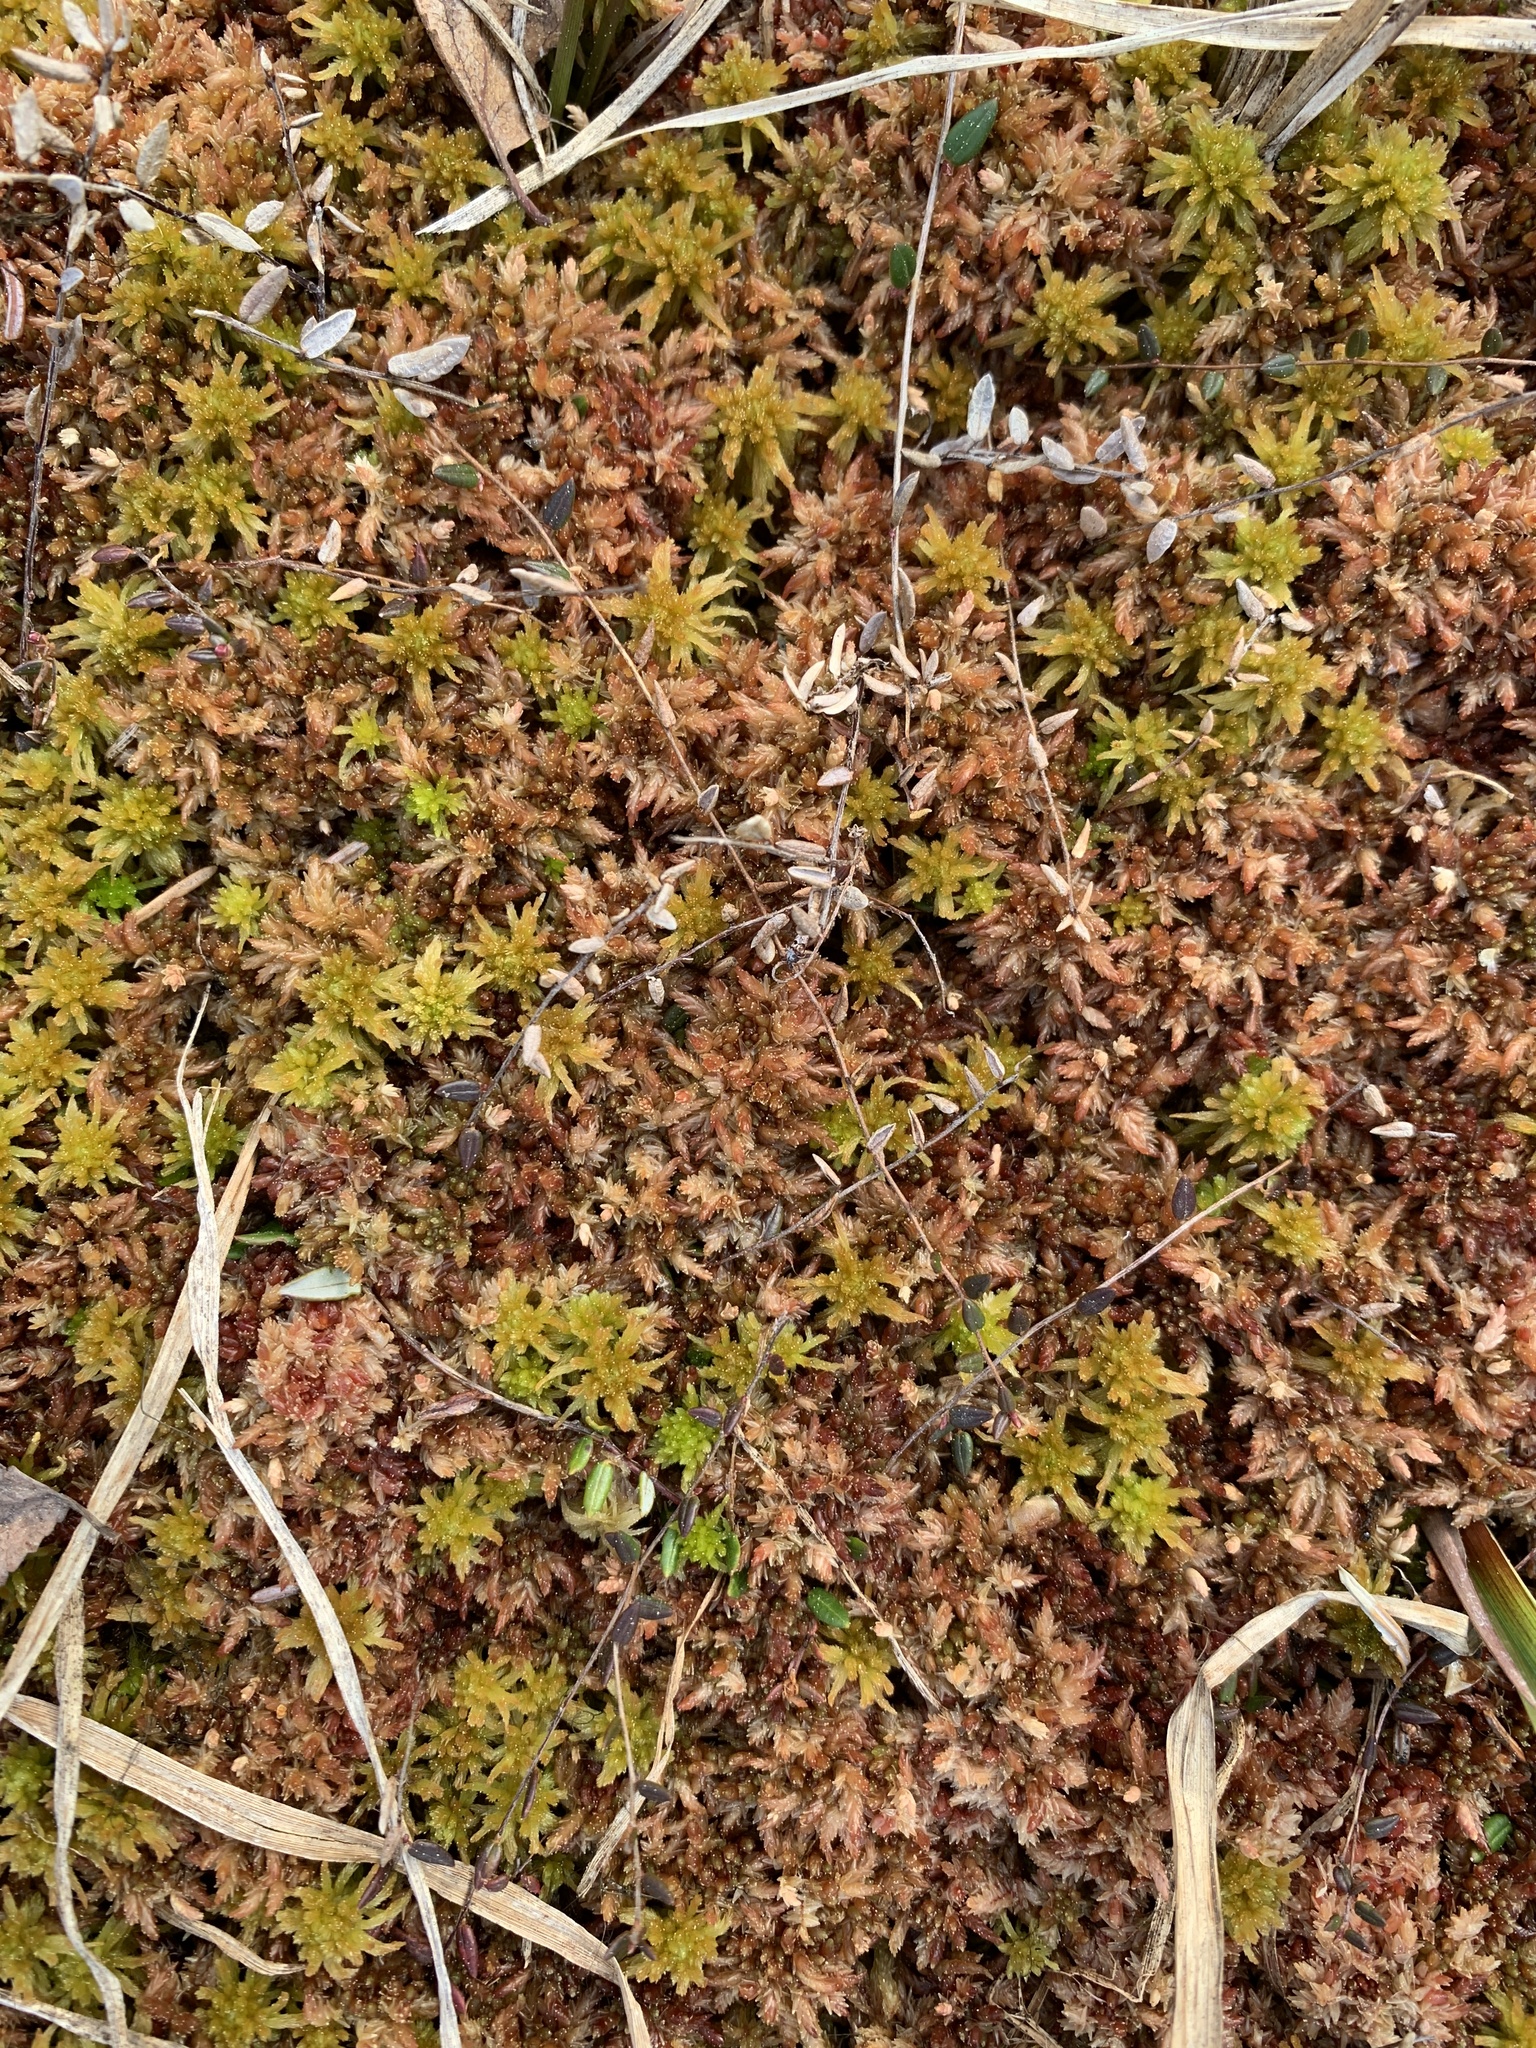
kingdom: Plantae
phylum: Bryophyta
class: Sphagnopsida
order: Sphagnales
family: Sphagnaceae
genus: Sphagnum
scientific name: Sphagnum divinum
